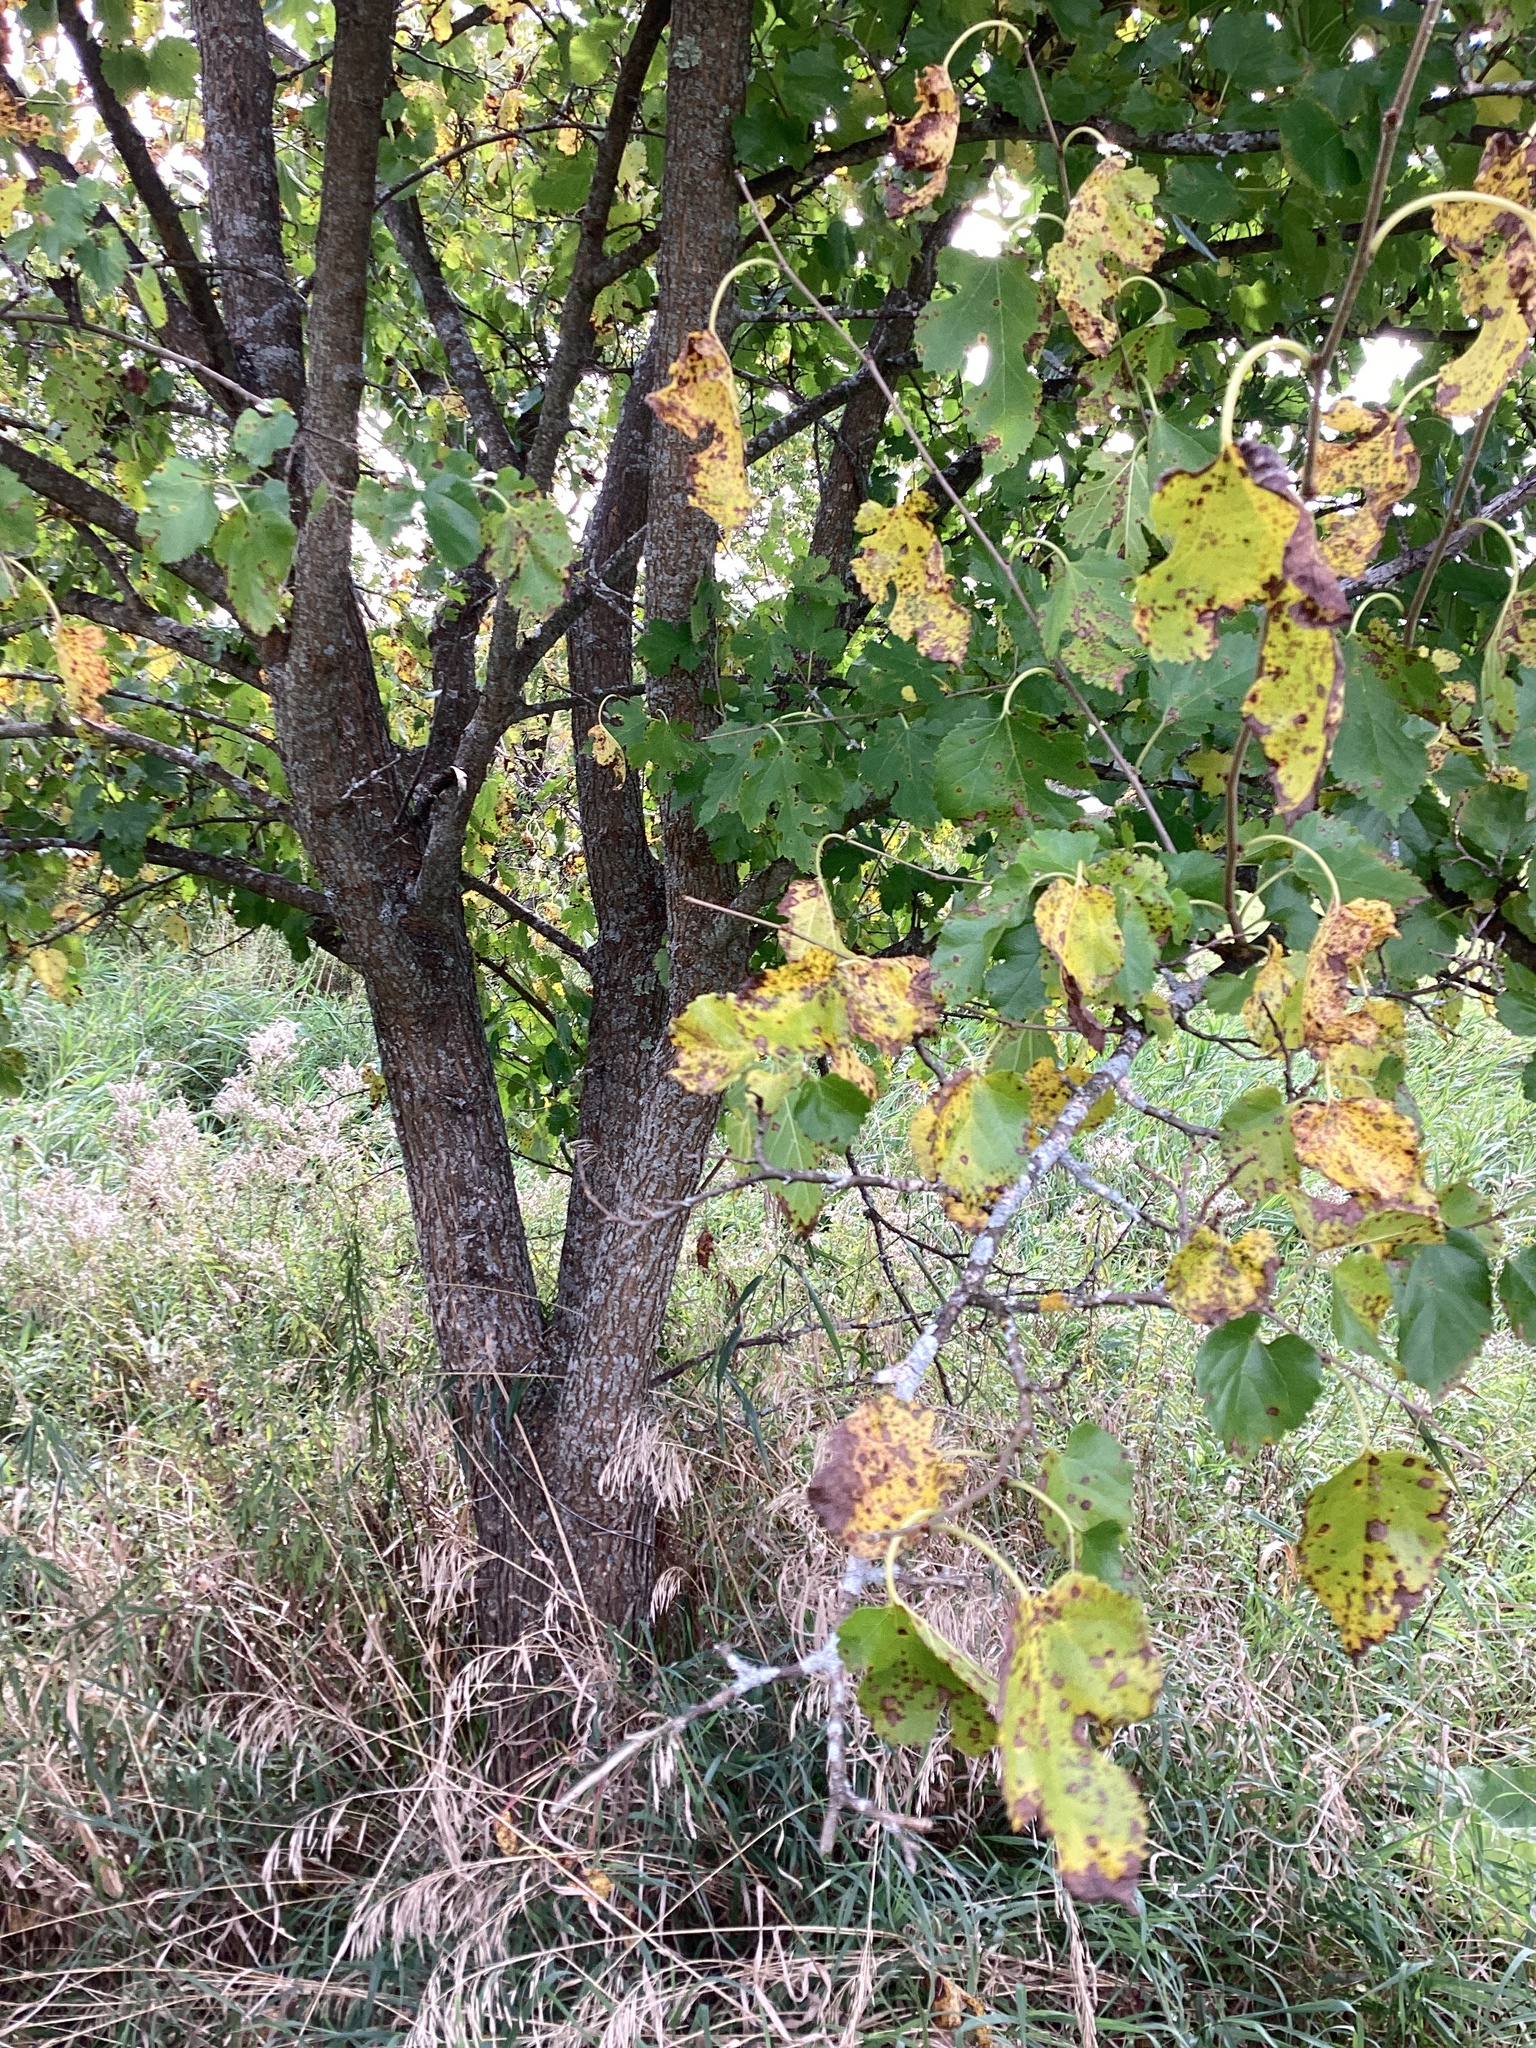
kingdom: Plantae
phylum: Tracheophyta
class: Magnoliopsida
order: Rosales
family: Moraceae
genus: Morus
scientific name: Morus alba
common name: White mulberry
